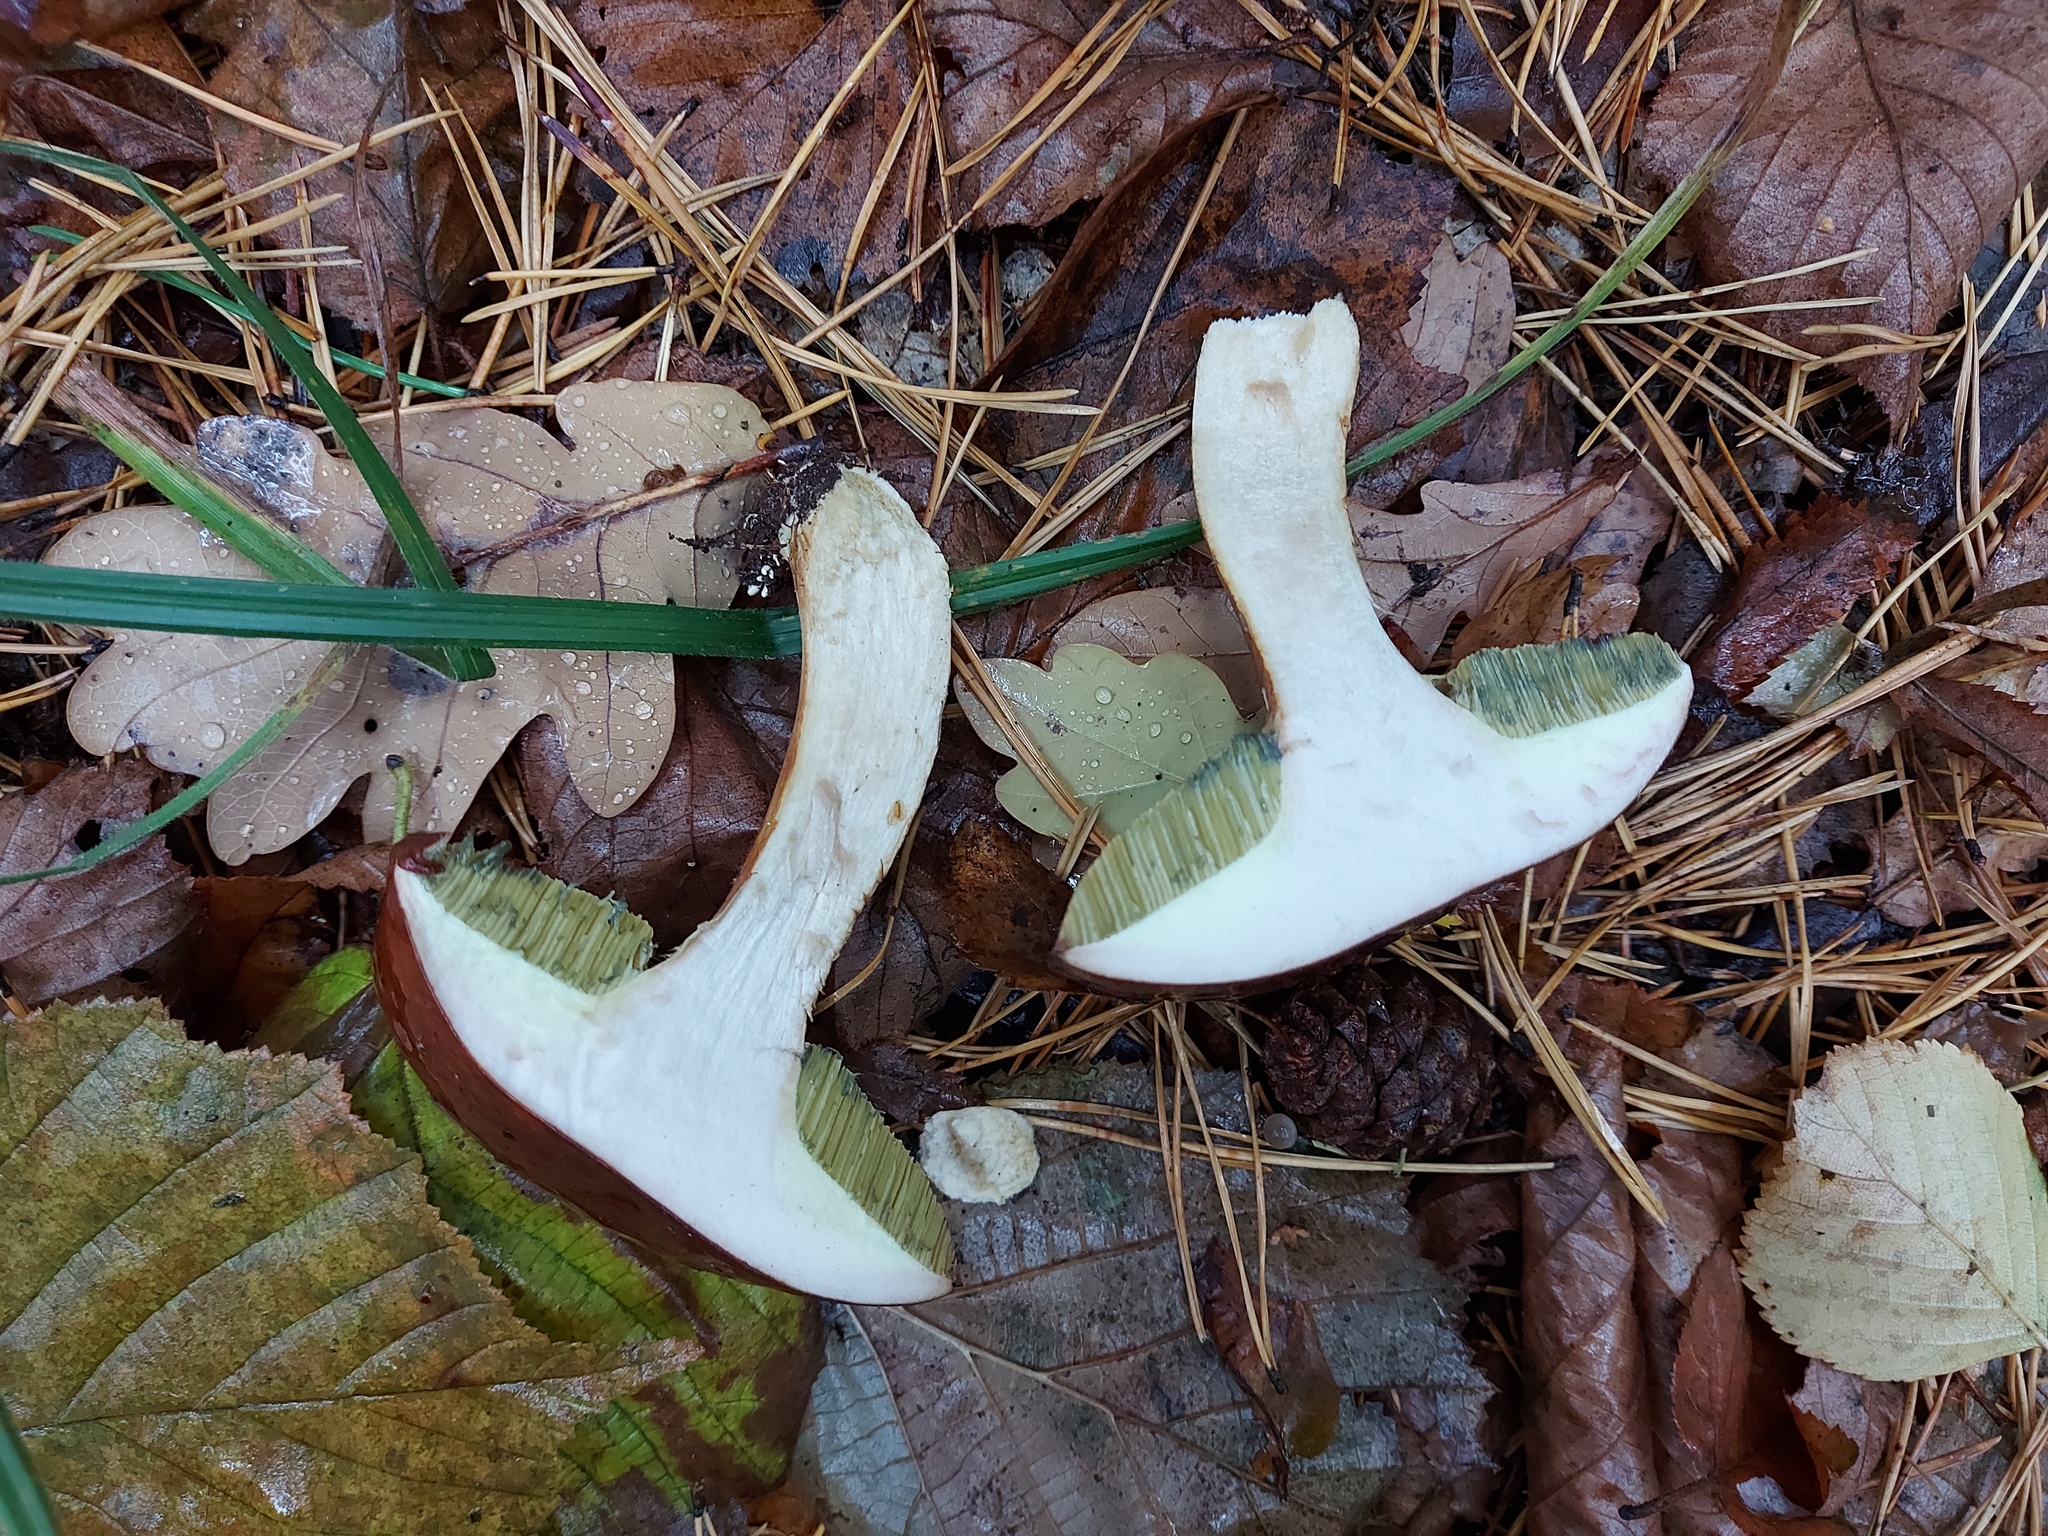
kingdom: Fungi
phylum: Basidiomycota
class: Agaricomycetes
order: Boletales
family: Boletaceae
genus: Imleria
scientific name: Imleria badia
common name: Bay bolete
